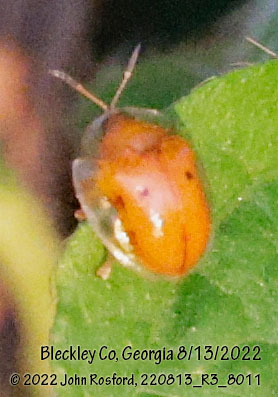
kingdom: Animalia
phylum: Arthropoda
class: Insecta
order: Coleoptera
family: Chrysomelidae
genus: Charidotella
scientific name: Charidotella sexpunctata
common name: Golden tortoise beetle
